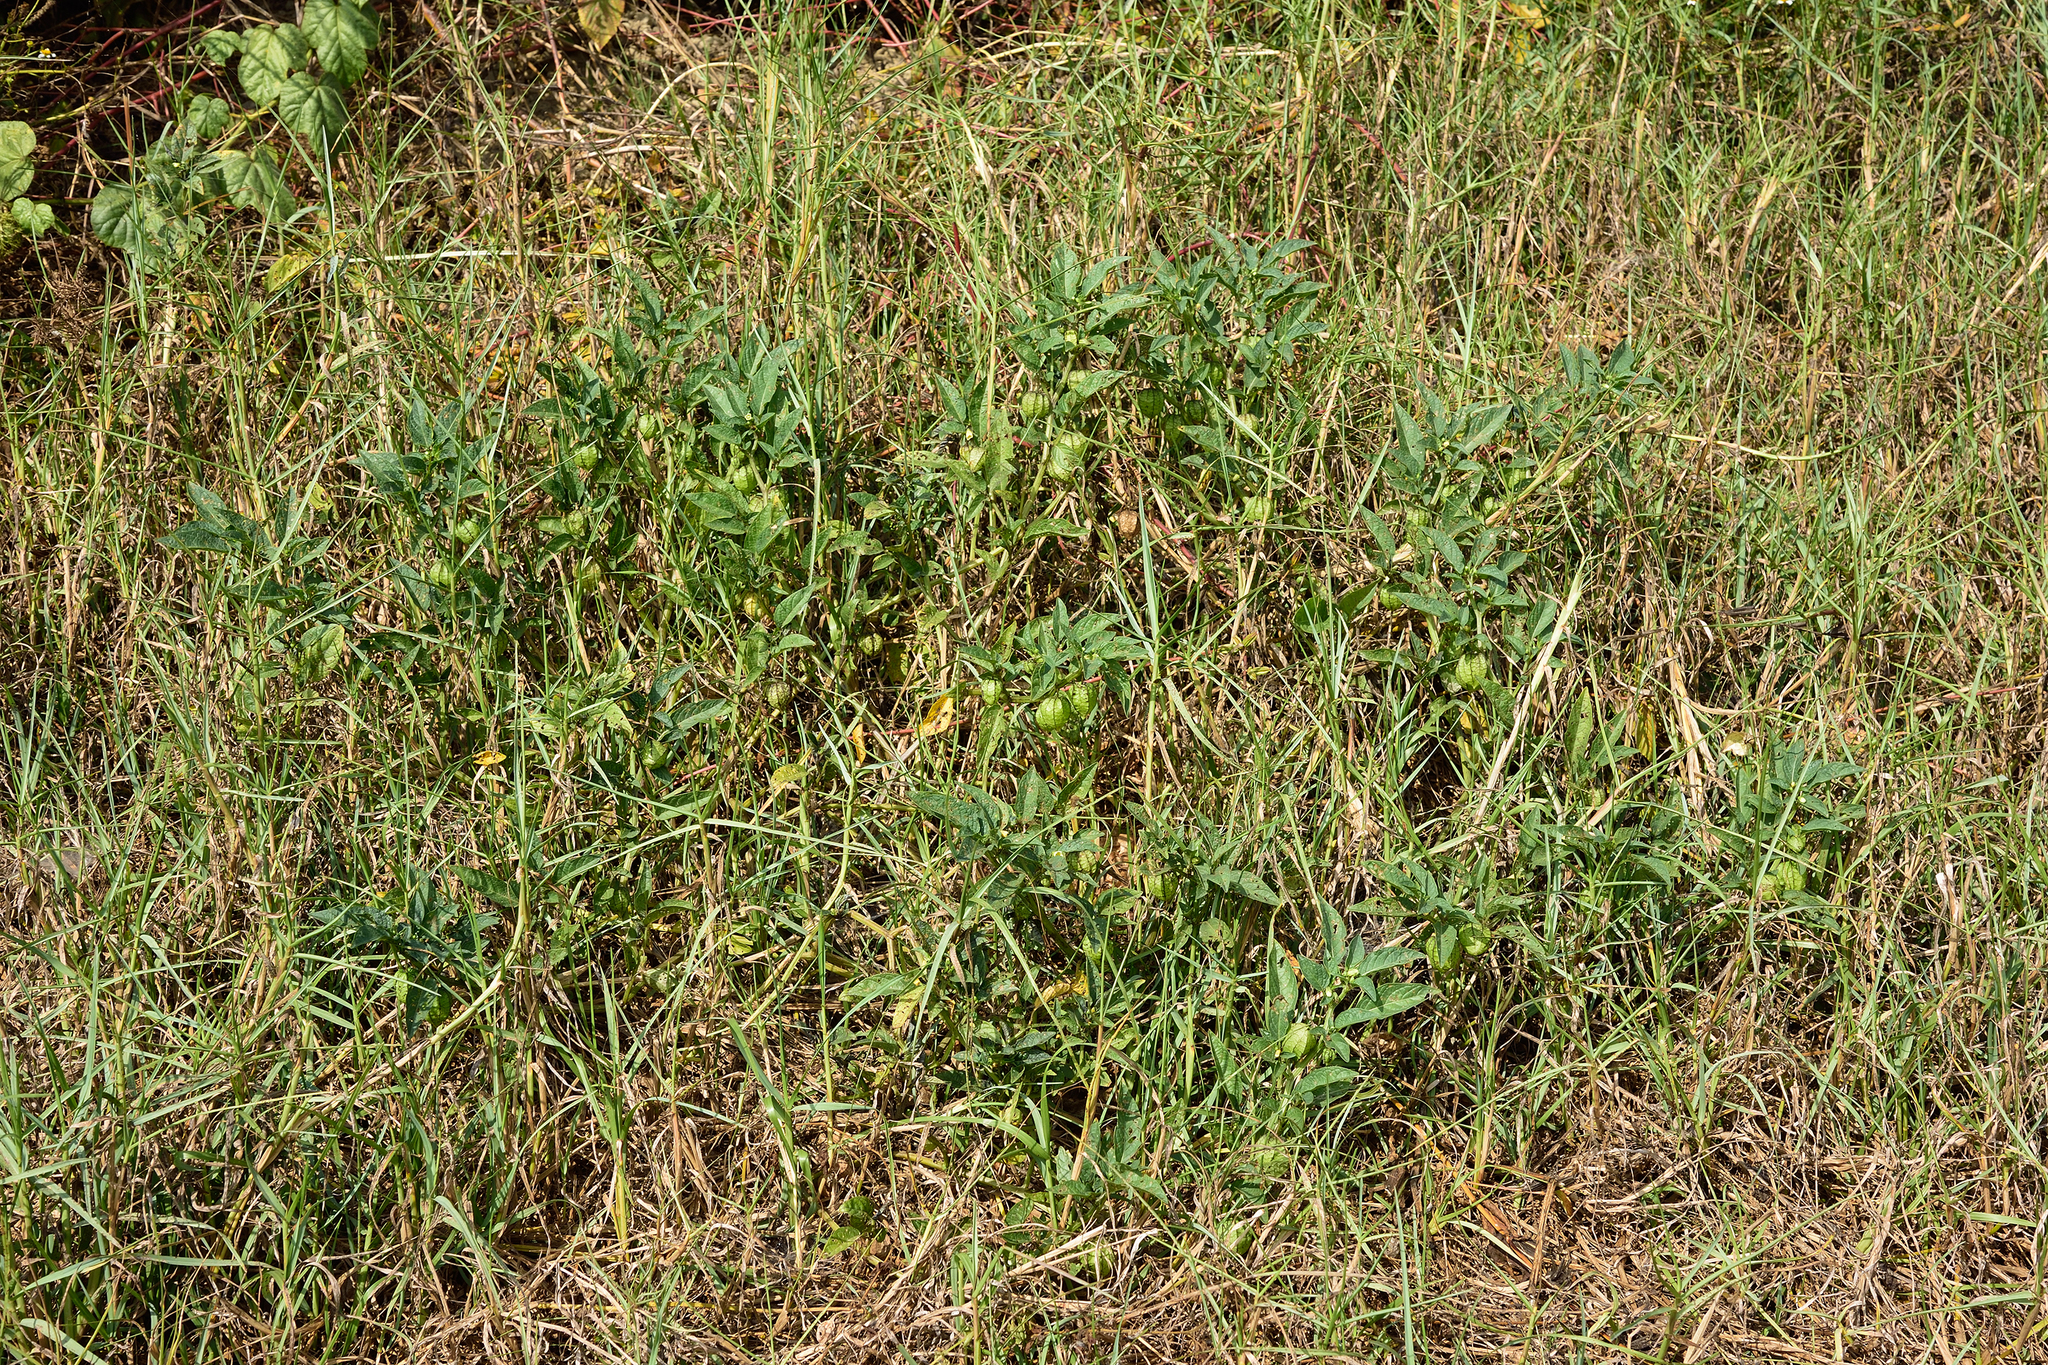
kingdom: Plantae
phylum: Tracheophyta
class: Magnoliopsida
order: Solanales
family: Solanaceae
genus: Physalis
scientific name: Physalis angulata
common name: Angular winter-cherry
